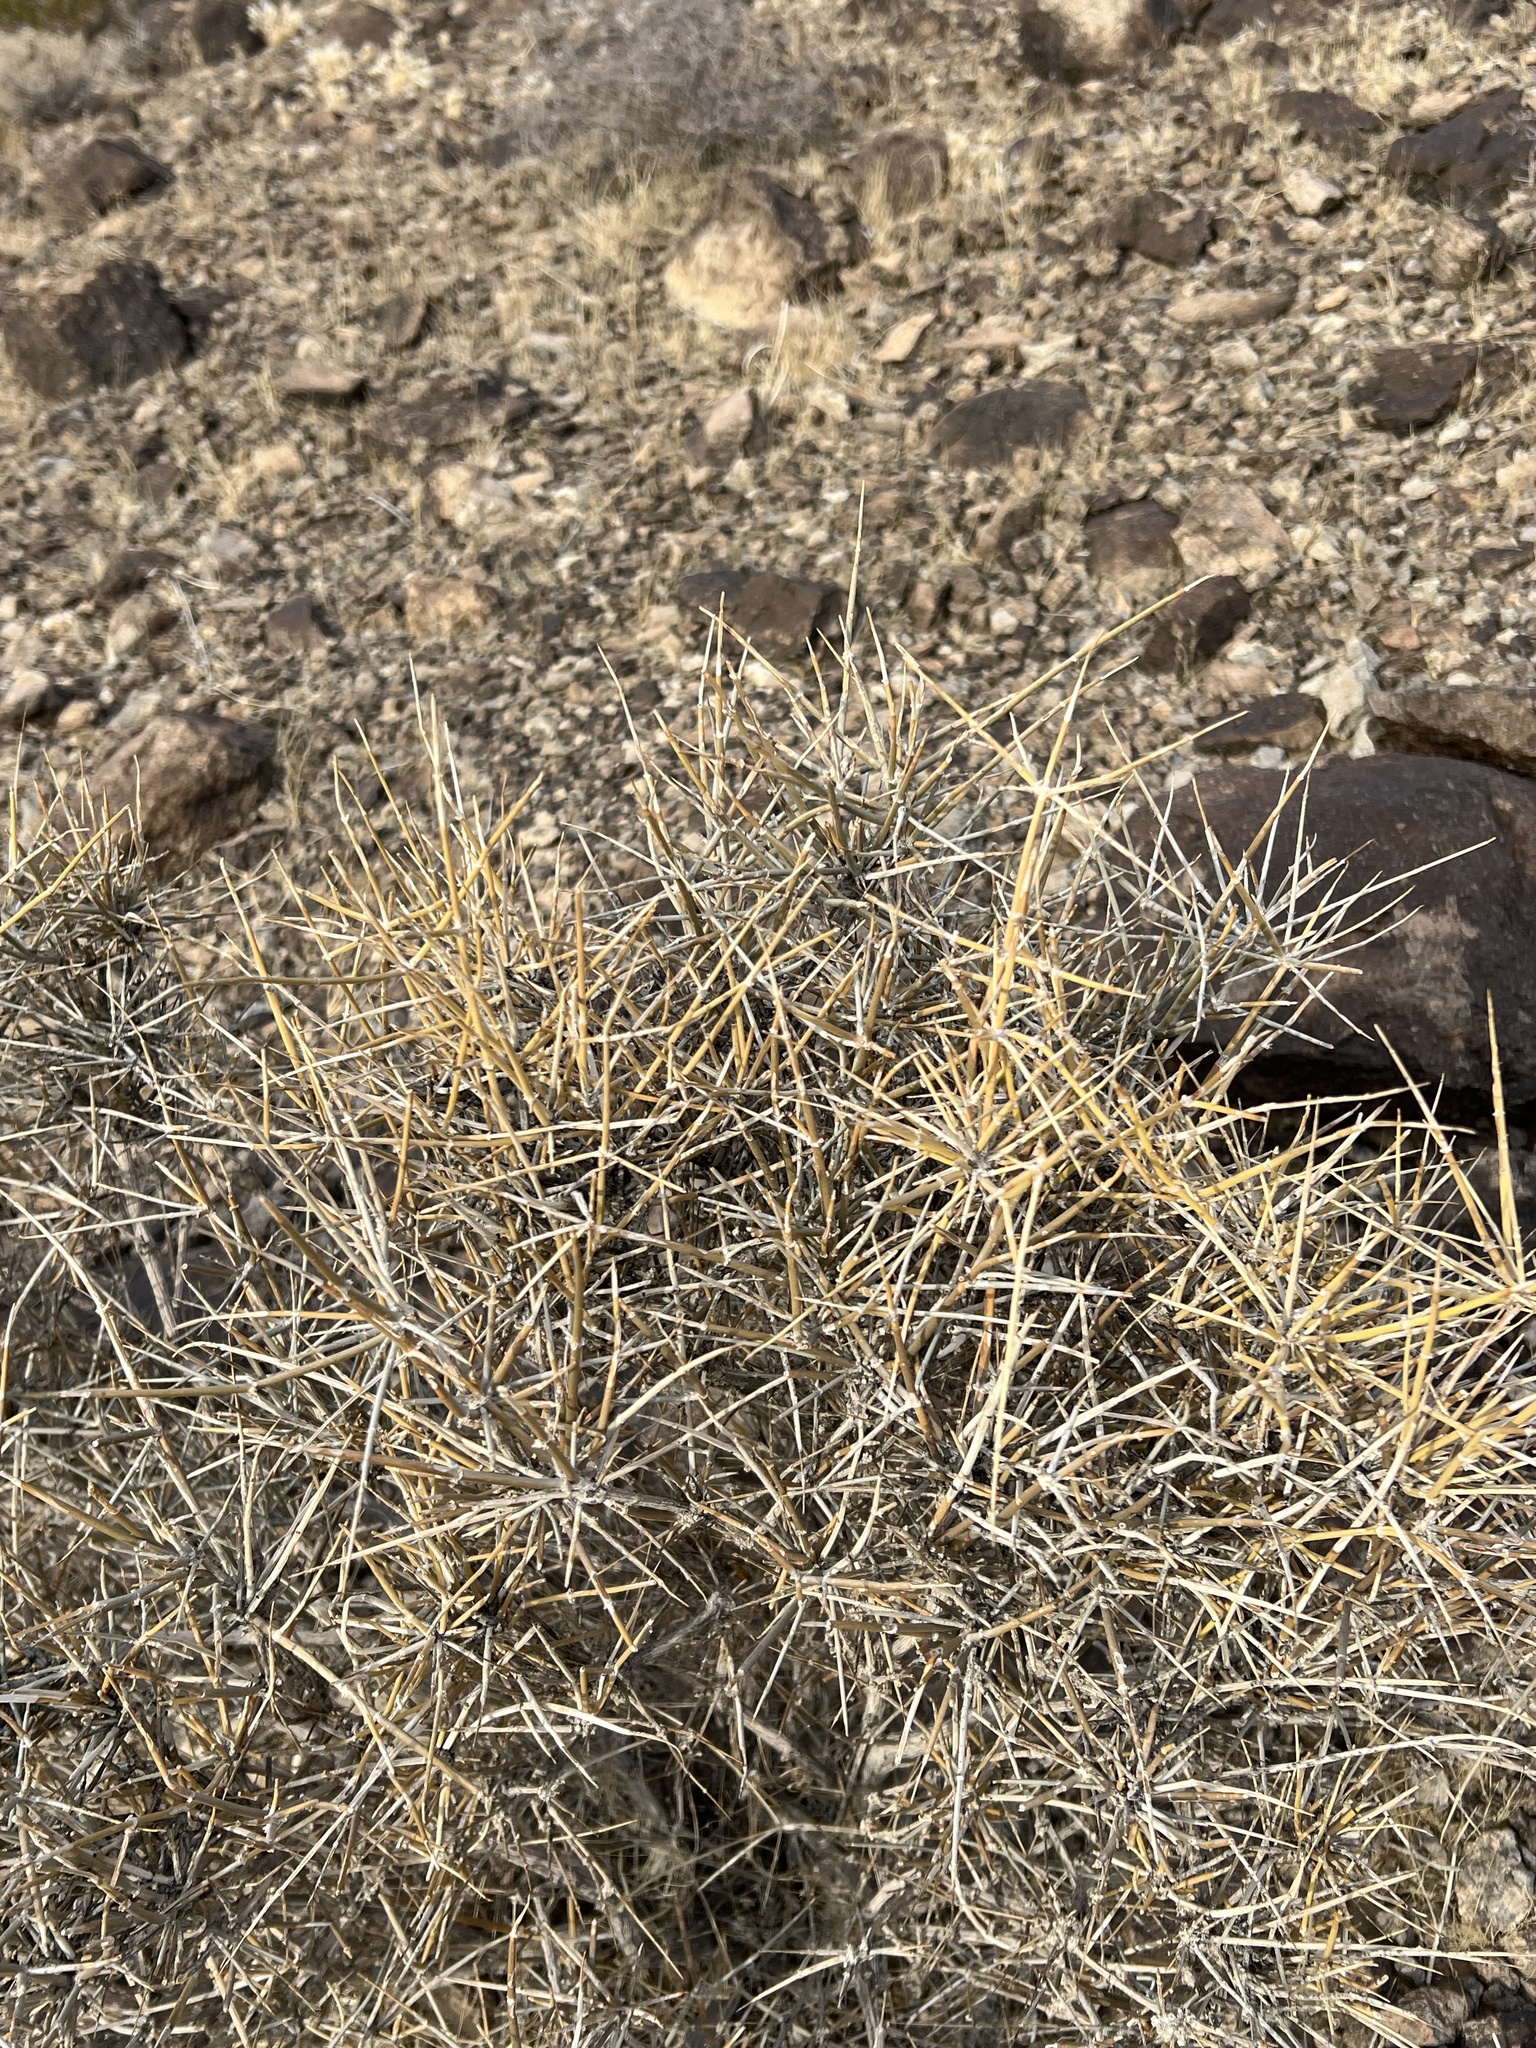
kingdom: Plantae
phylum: Tracheophyta
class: Gnetopsida
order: Ephedrales
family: Ephedraceae
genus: Ephedra
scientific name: Ephedra nevadensis
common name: Gray ephedra
